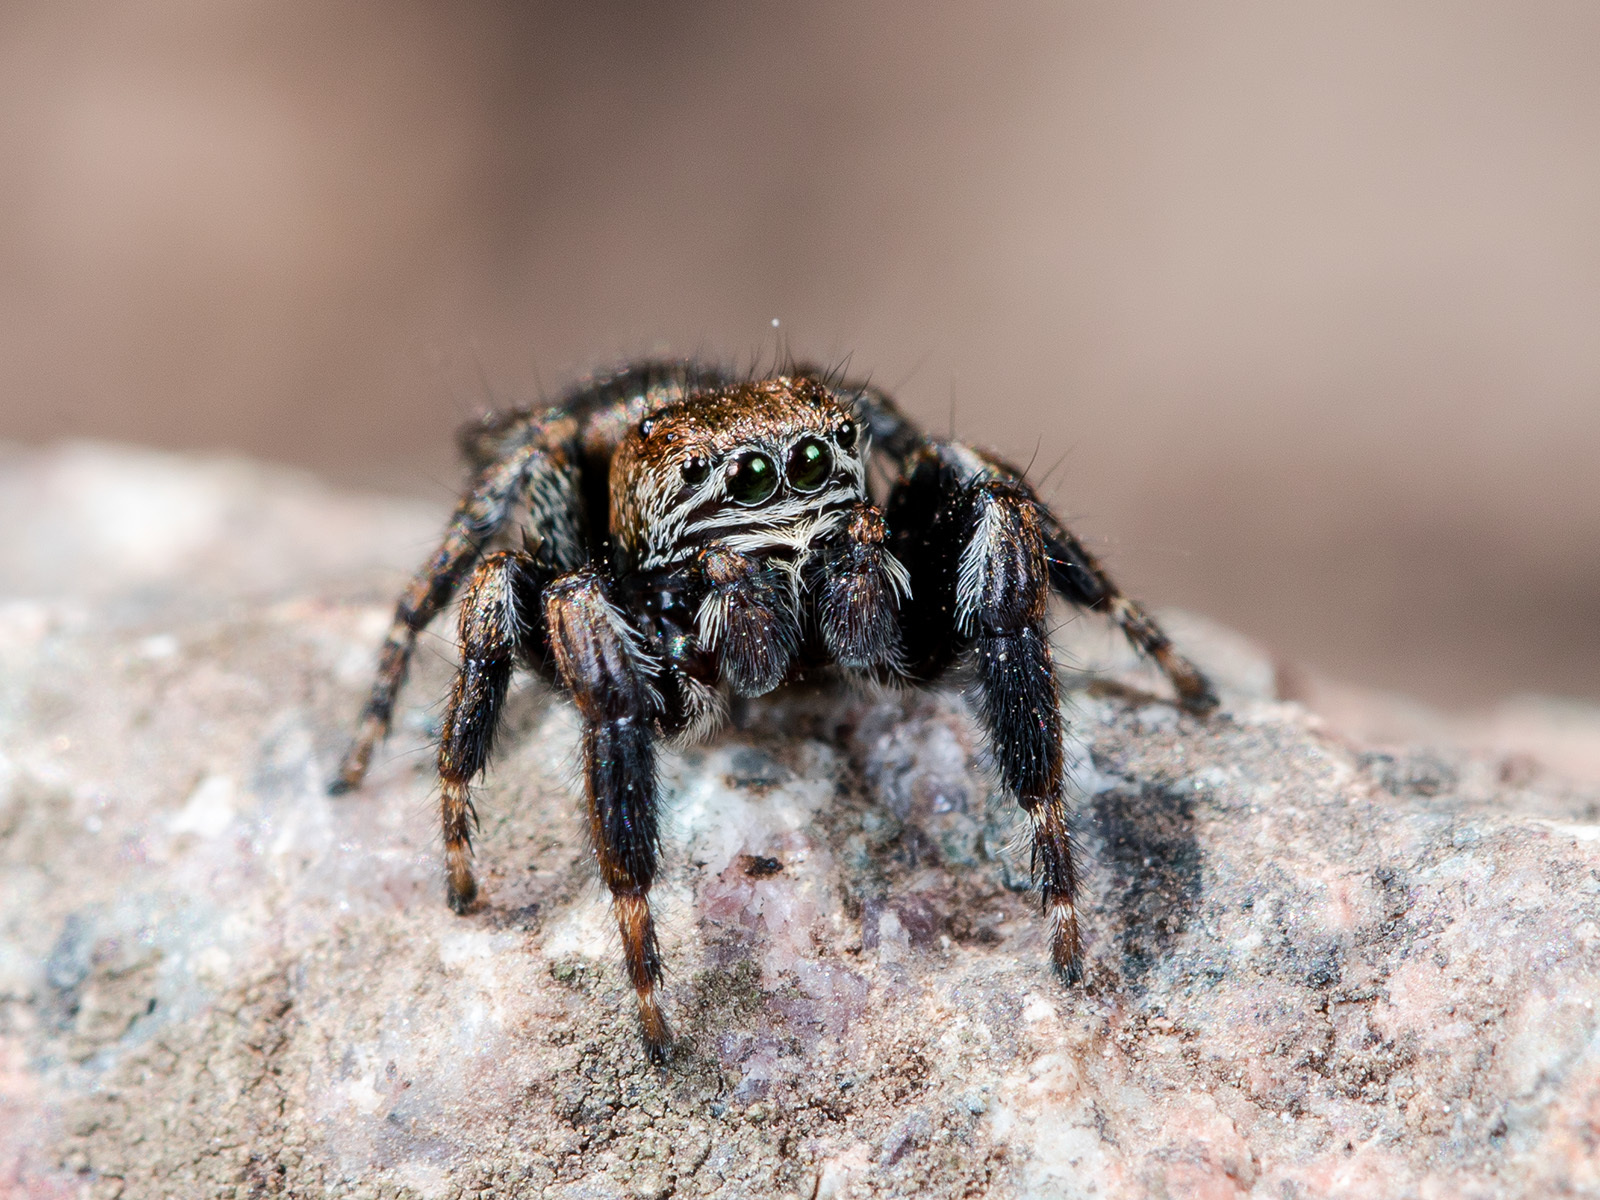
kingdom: Animalia
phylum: Arthropoda
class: Arachnida
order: Araneae
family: Salticidae
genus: Evarcha
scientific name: Evarcha arcuata
